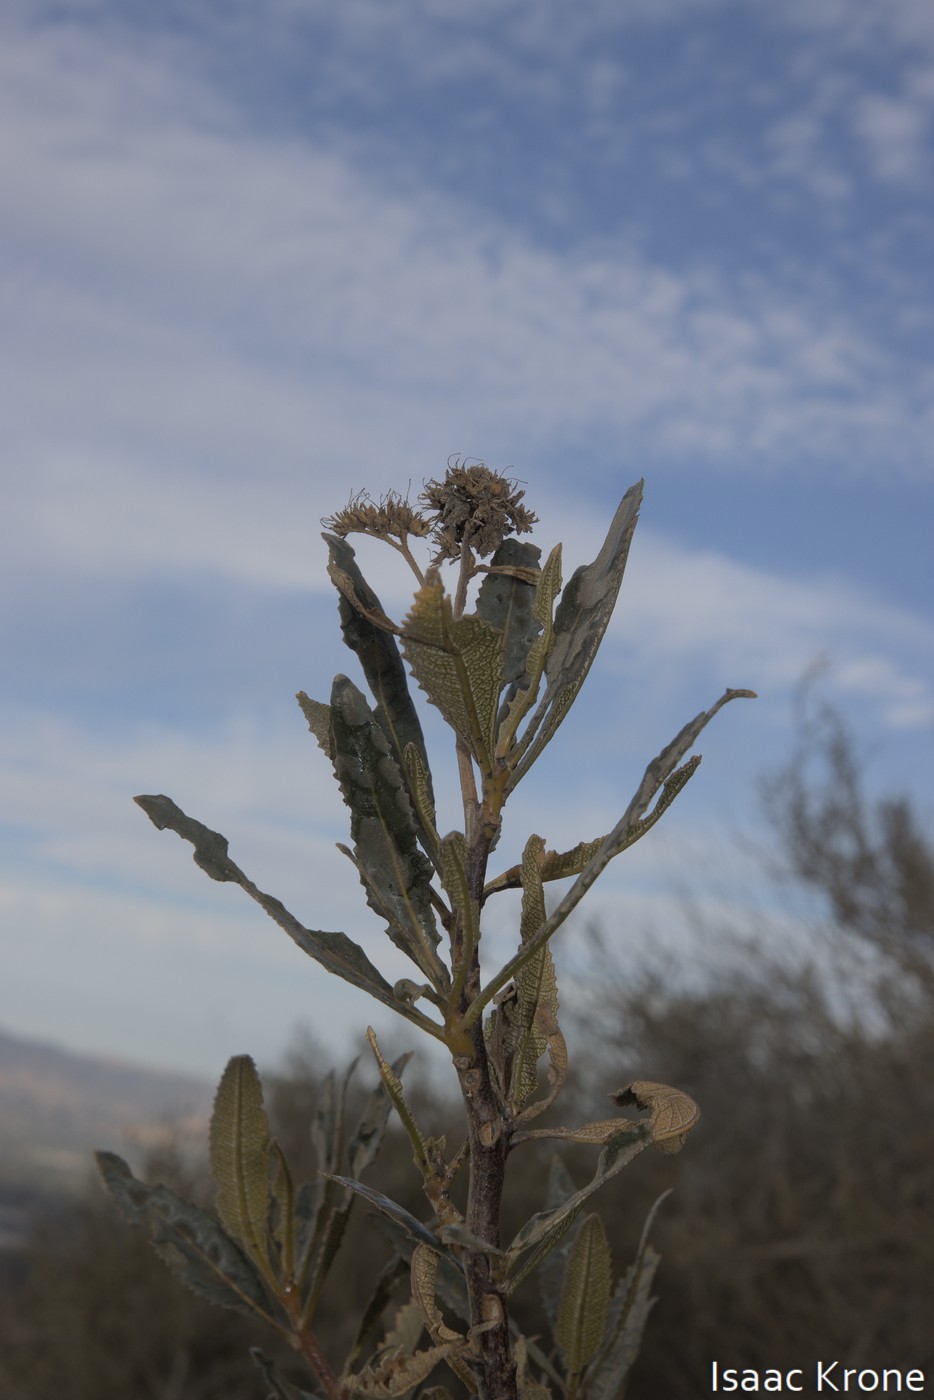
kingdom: Plantae
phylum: Tracheophyta
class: Magnoliopsida
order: Boraginales
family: Namaceae
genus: Eriodictyon
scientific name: Eriodictyon californicum
